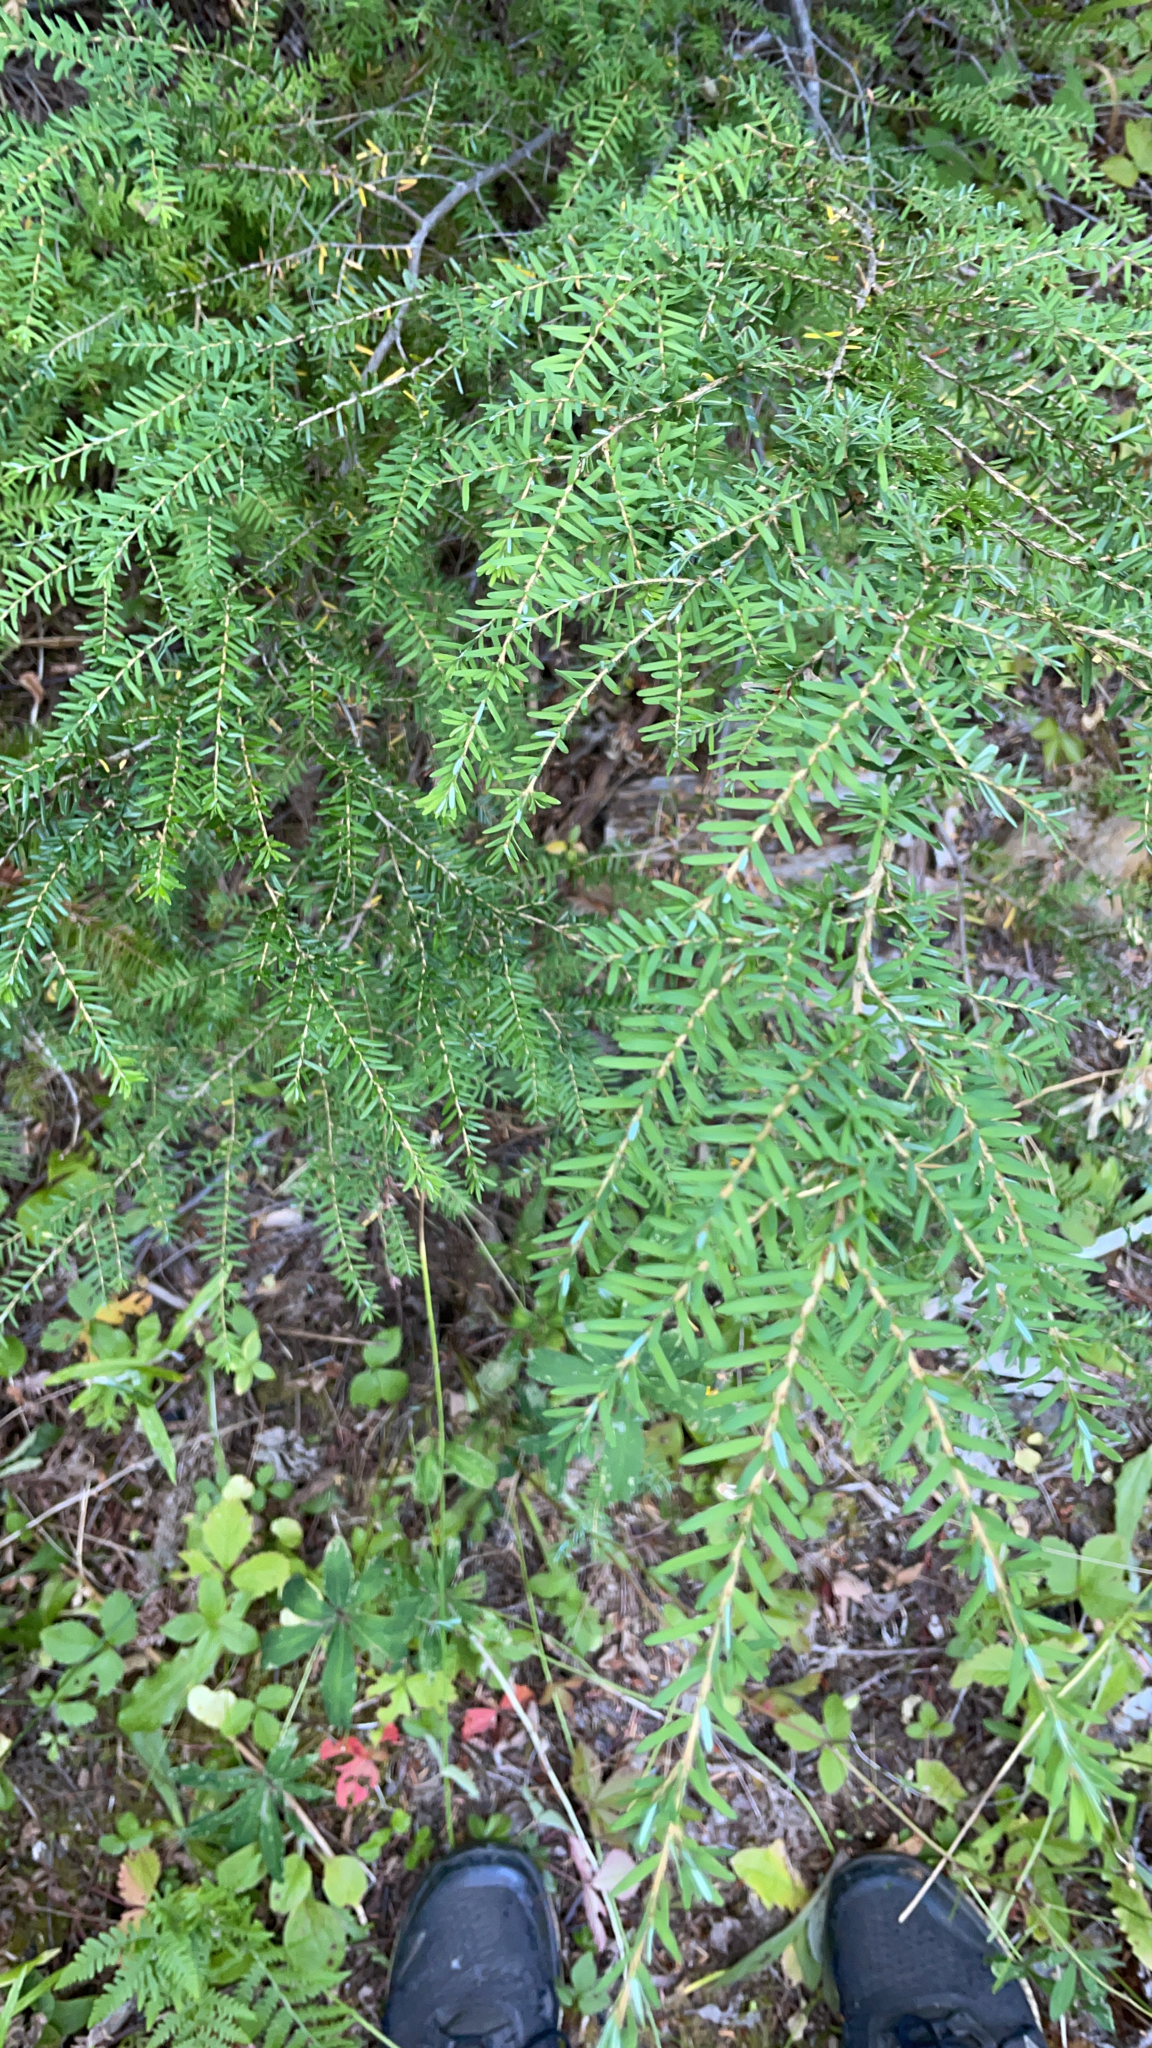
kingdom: Plantae
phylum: Tracheophyta
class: Pinopsida
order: Pinales
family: Pinaceae
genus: Tsuga
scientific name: Tsuga heterophylla
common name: Western hemlock
